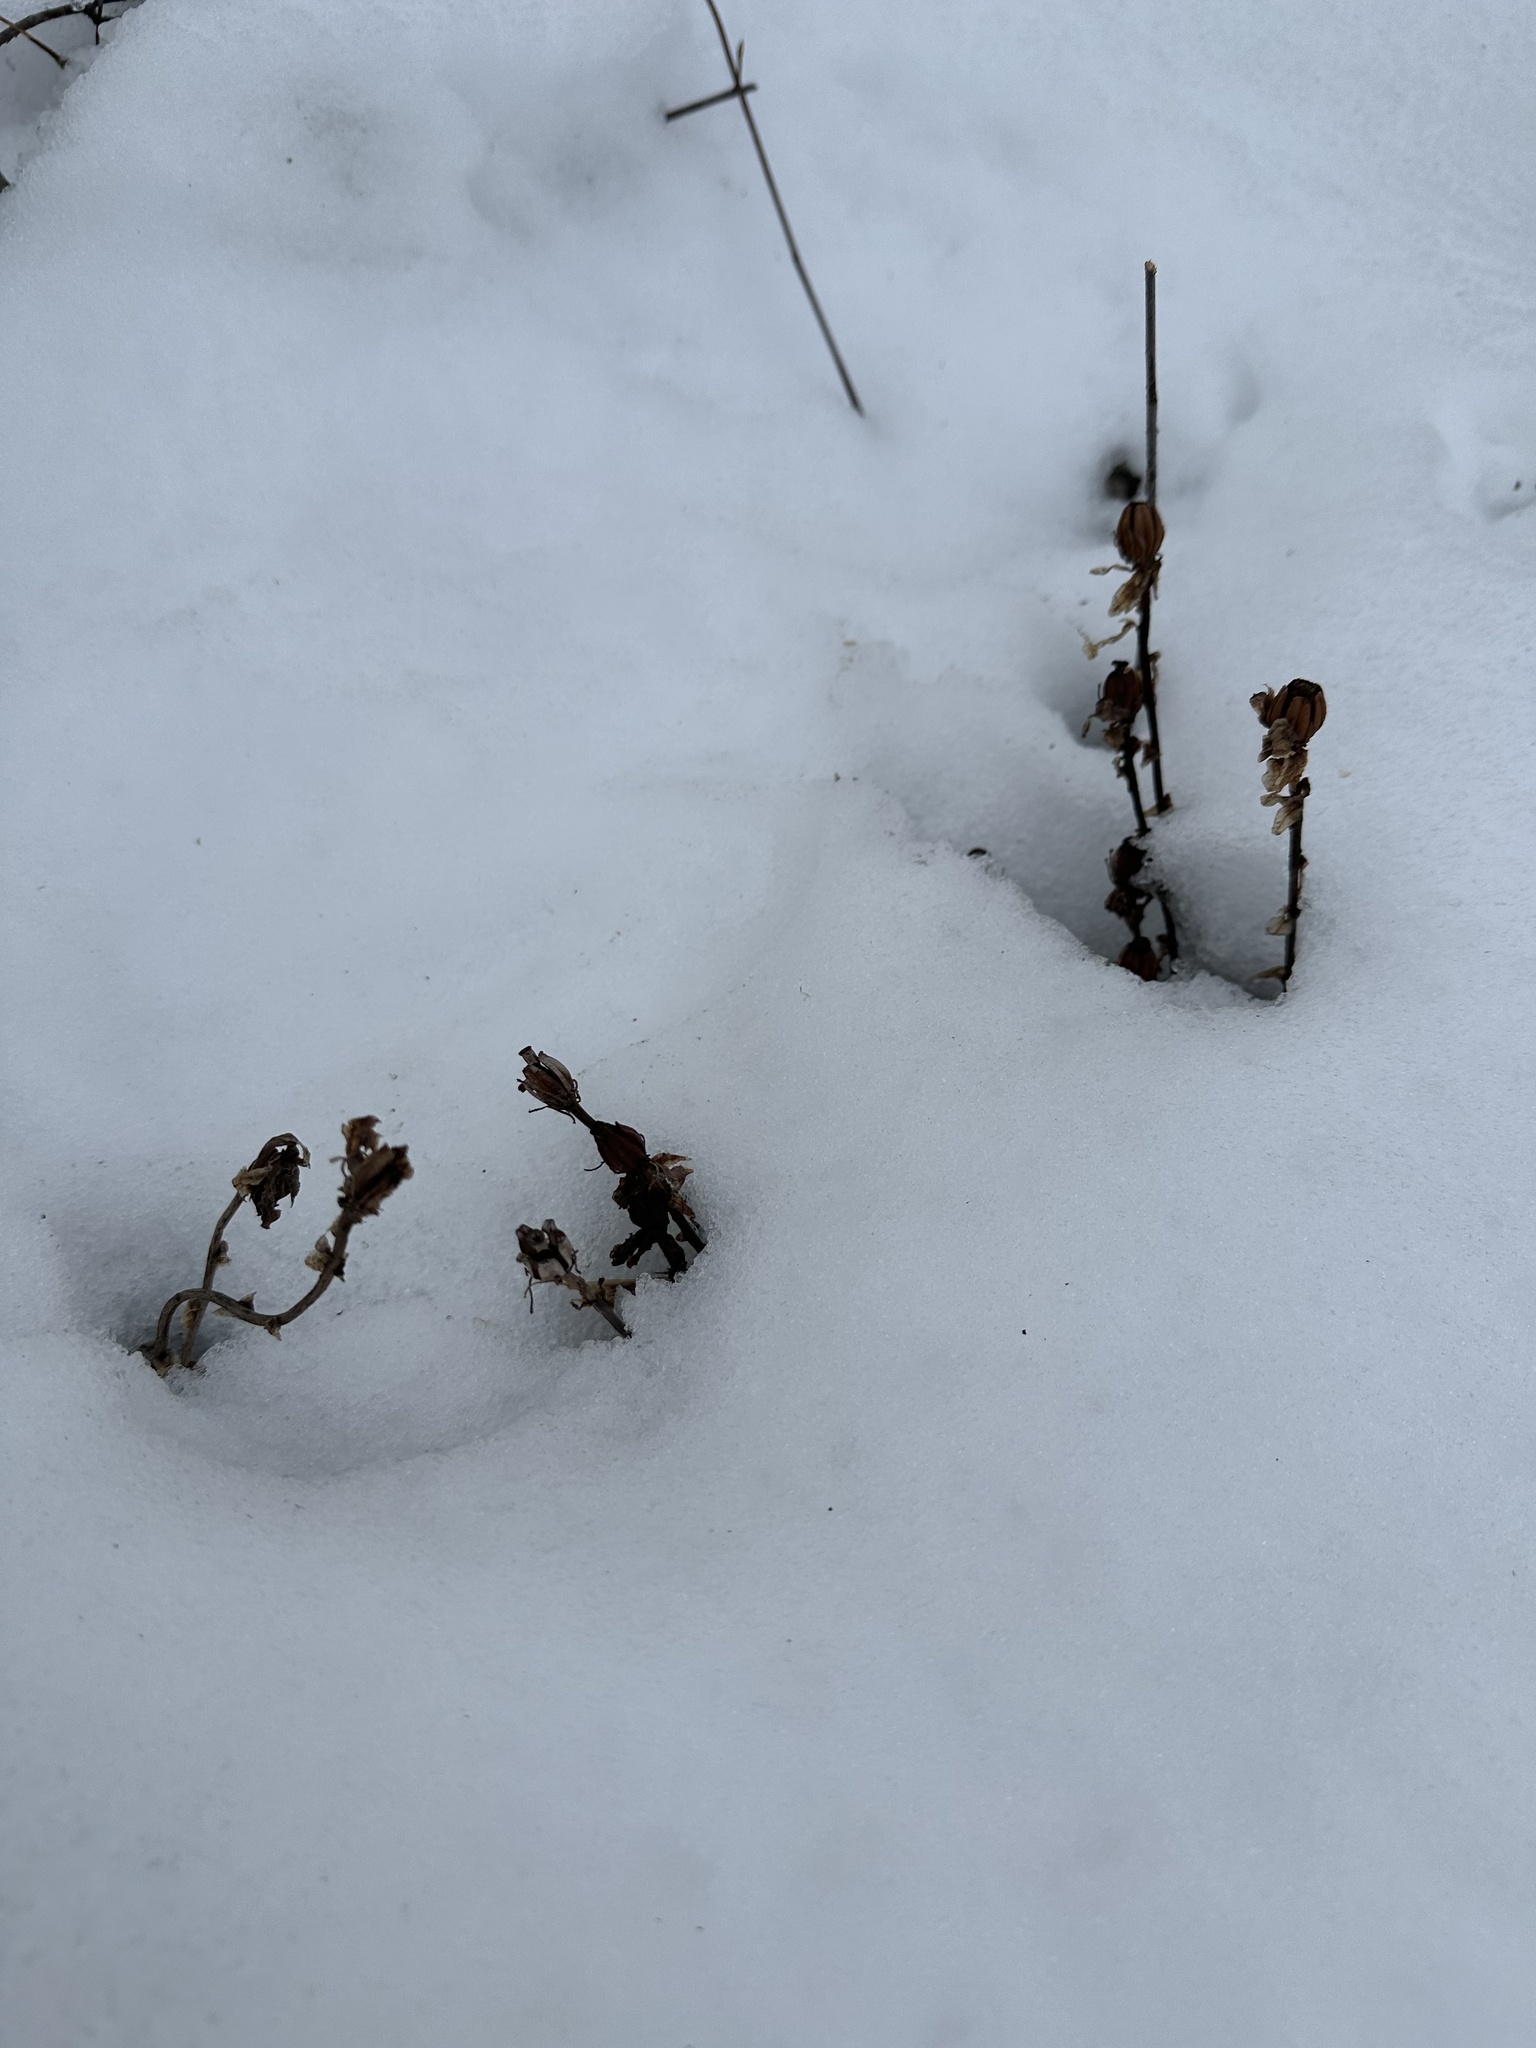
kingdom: Plantae
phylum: Tracheophyta
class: Magnoliopsida
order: Ericales
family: Ericaceae
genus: Monotropa
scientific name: Monotropa uniflora
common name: Convulsion root
